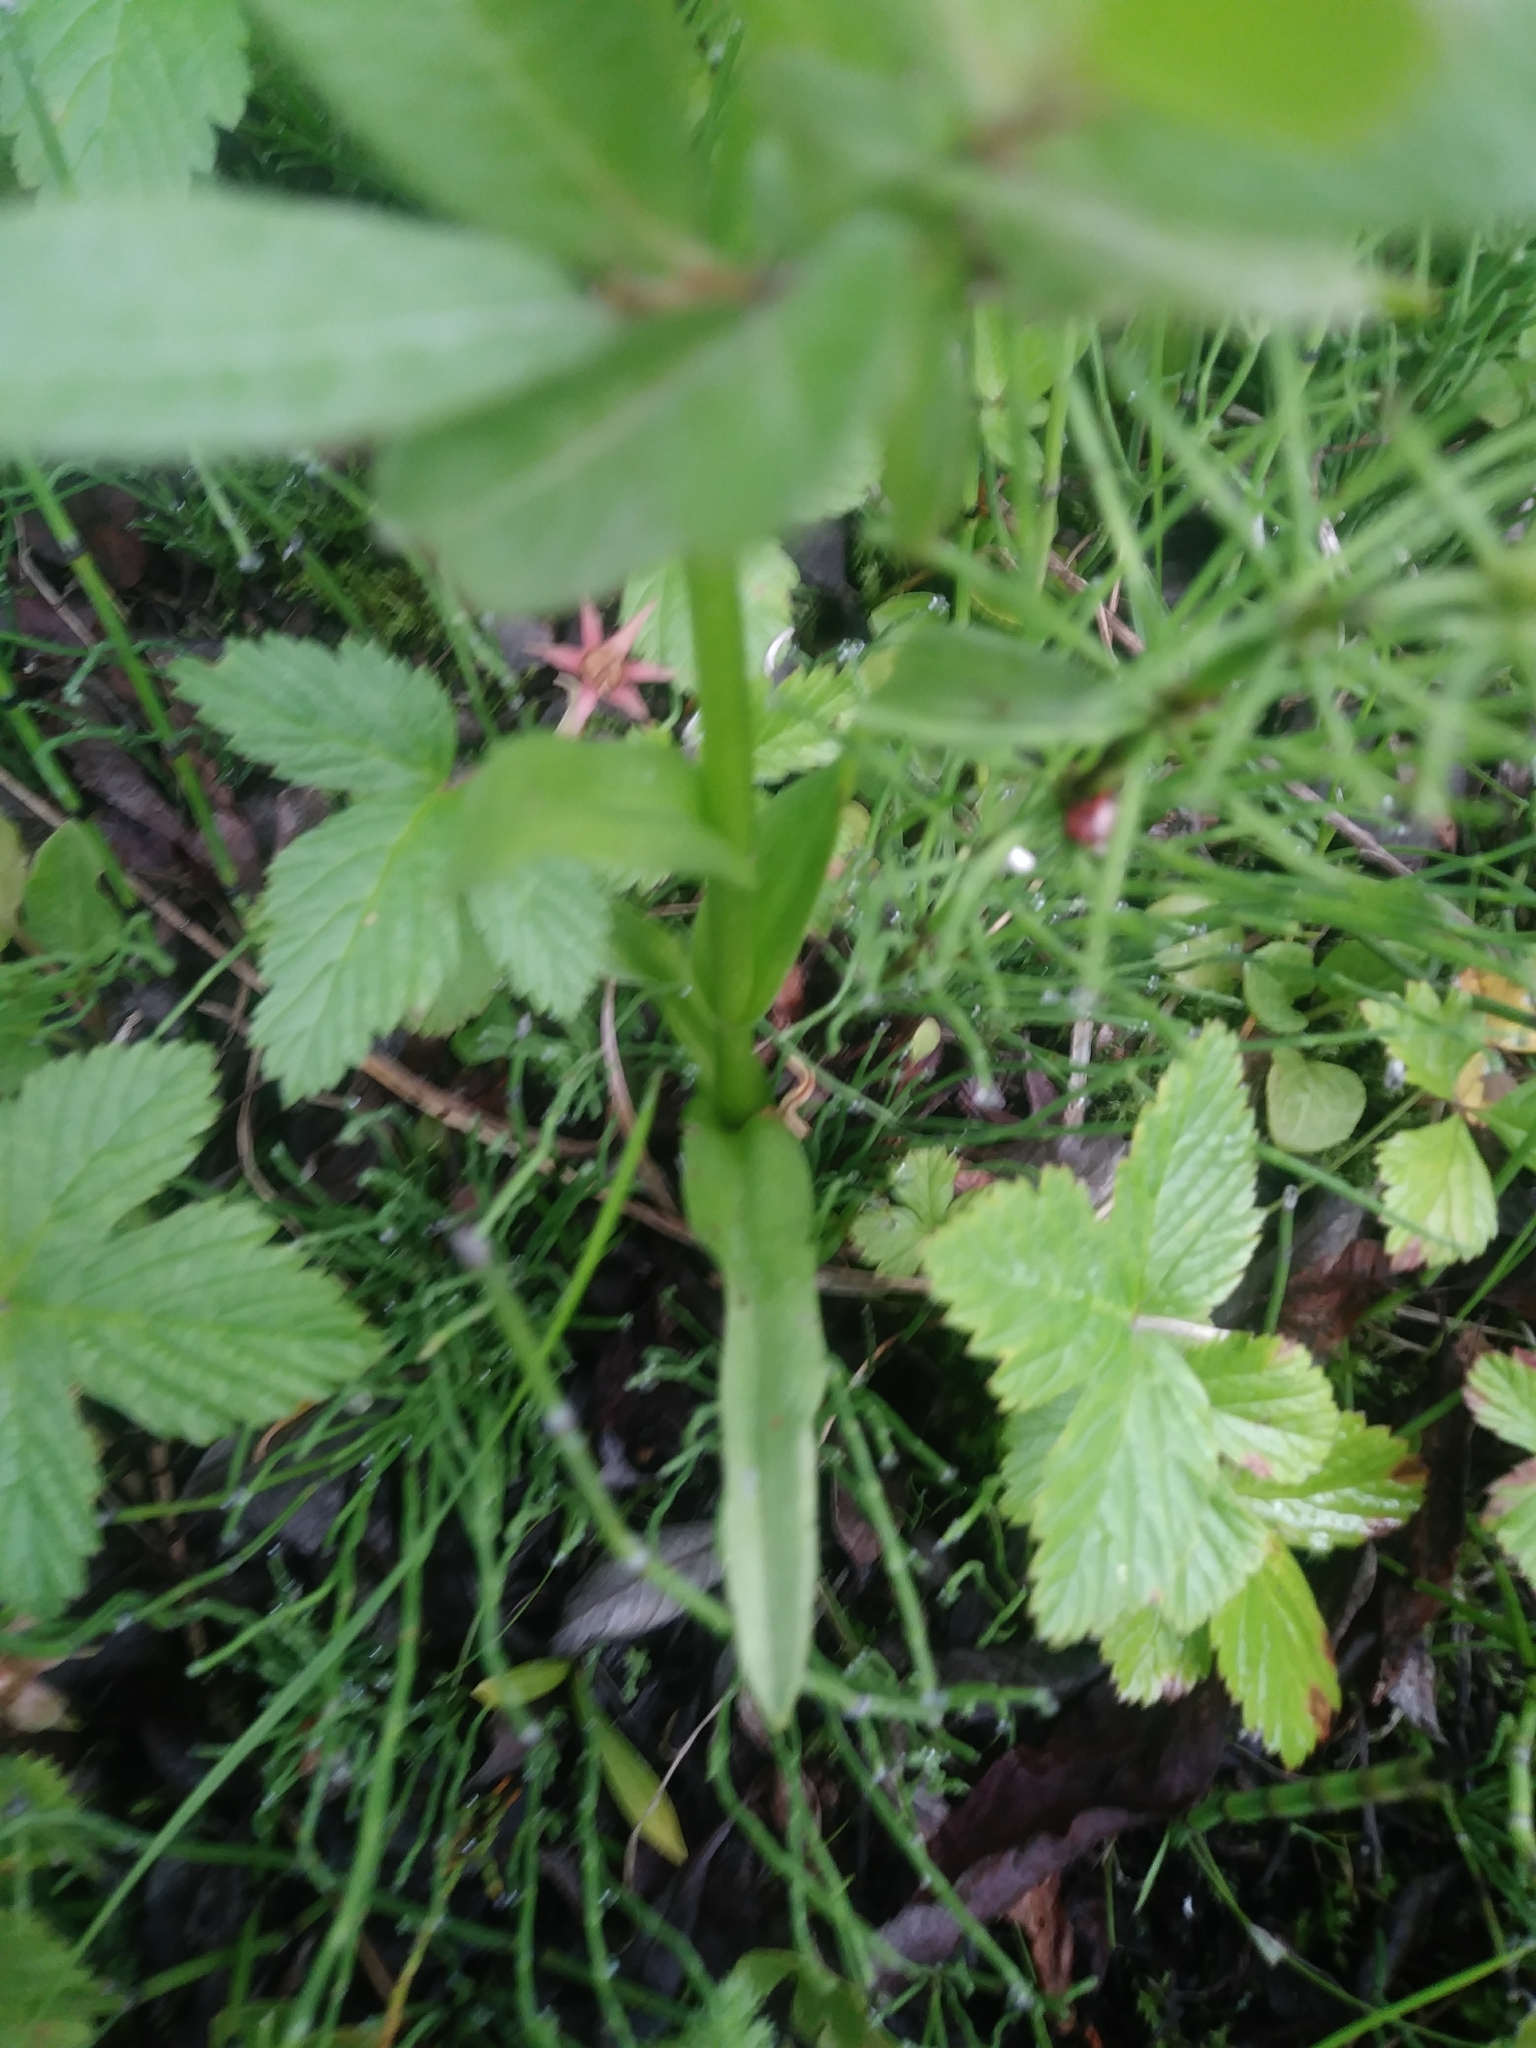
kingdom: Plantae
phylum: Tracheophyta
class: Liliopsida
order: Asparagales
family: Orchidaceae
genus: Platanthera
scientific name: Platanthera dilatata
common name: Bog candles
